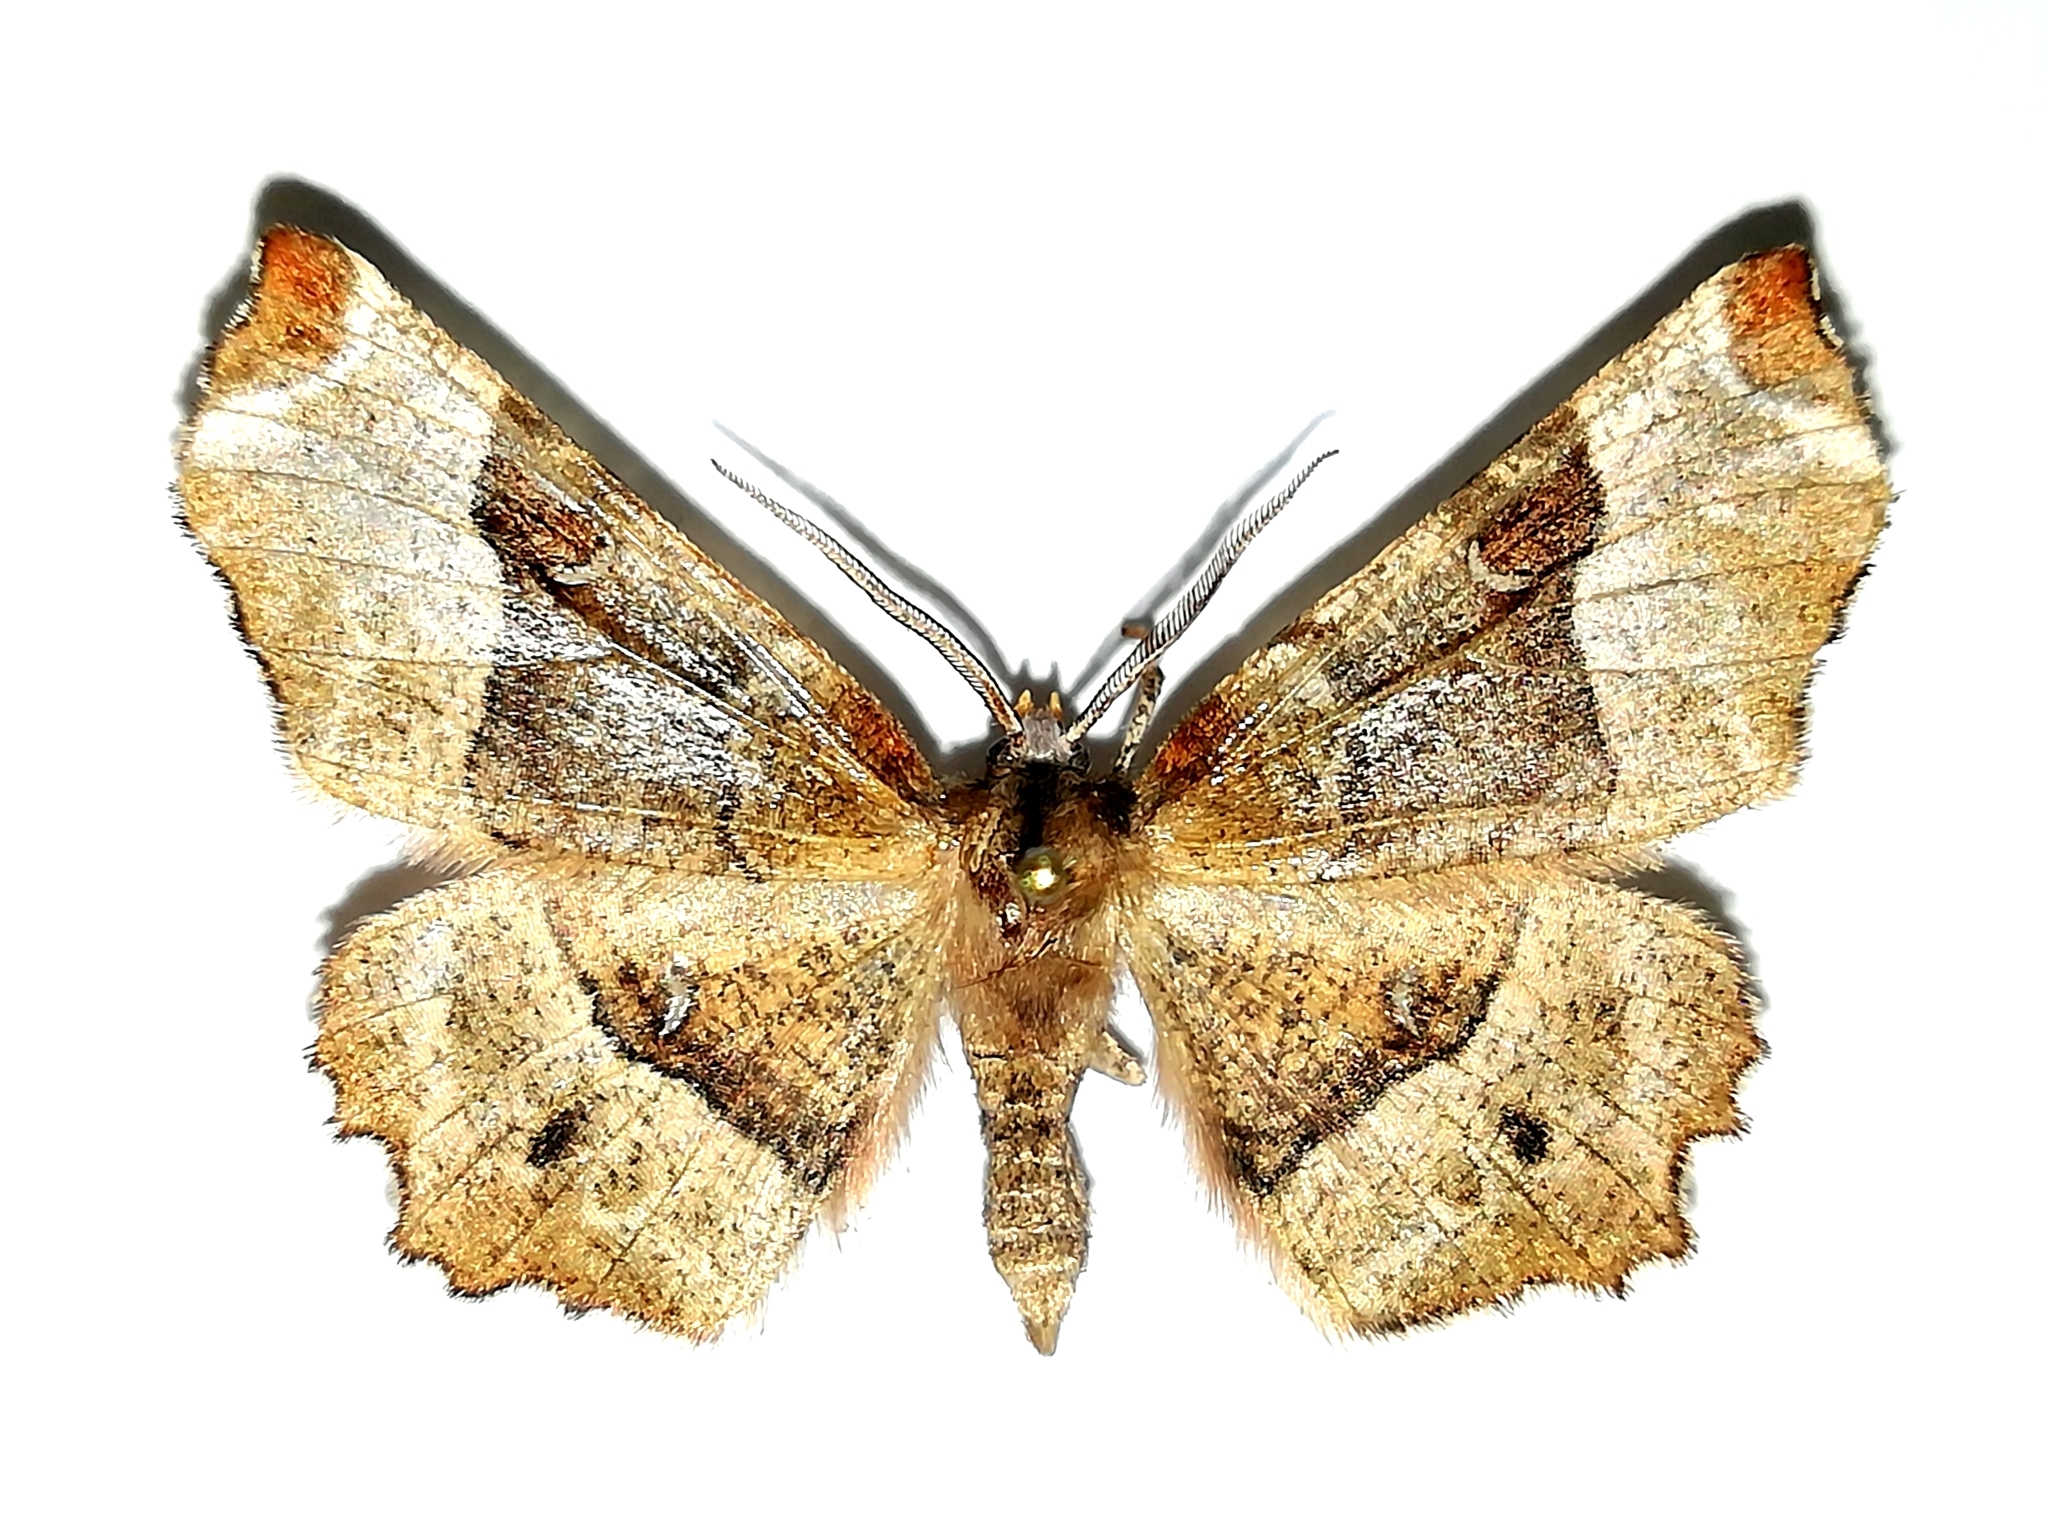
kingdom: Animalia
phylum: Arthropoda
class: Insecta
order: Lepidoptera
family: Geometridae
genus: Selenia
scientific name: Selenia tetralunaria
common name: Purple thorn
